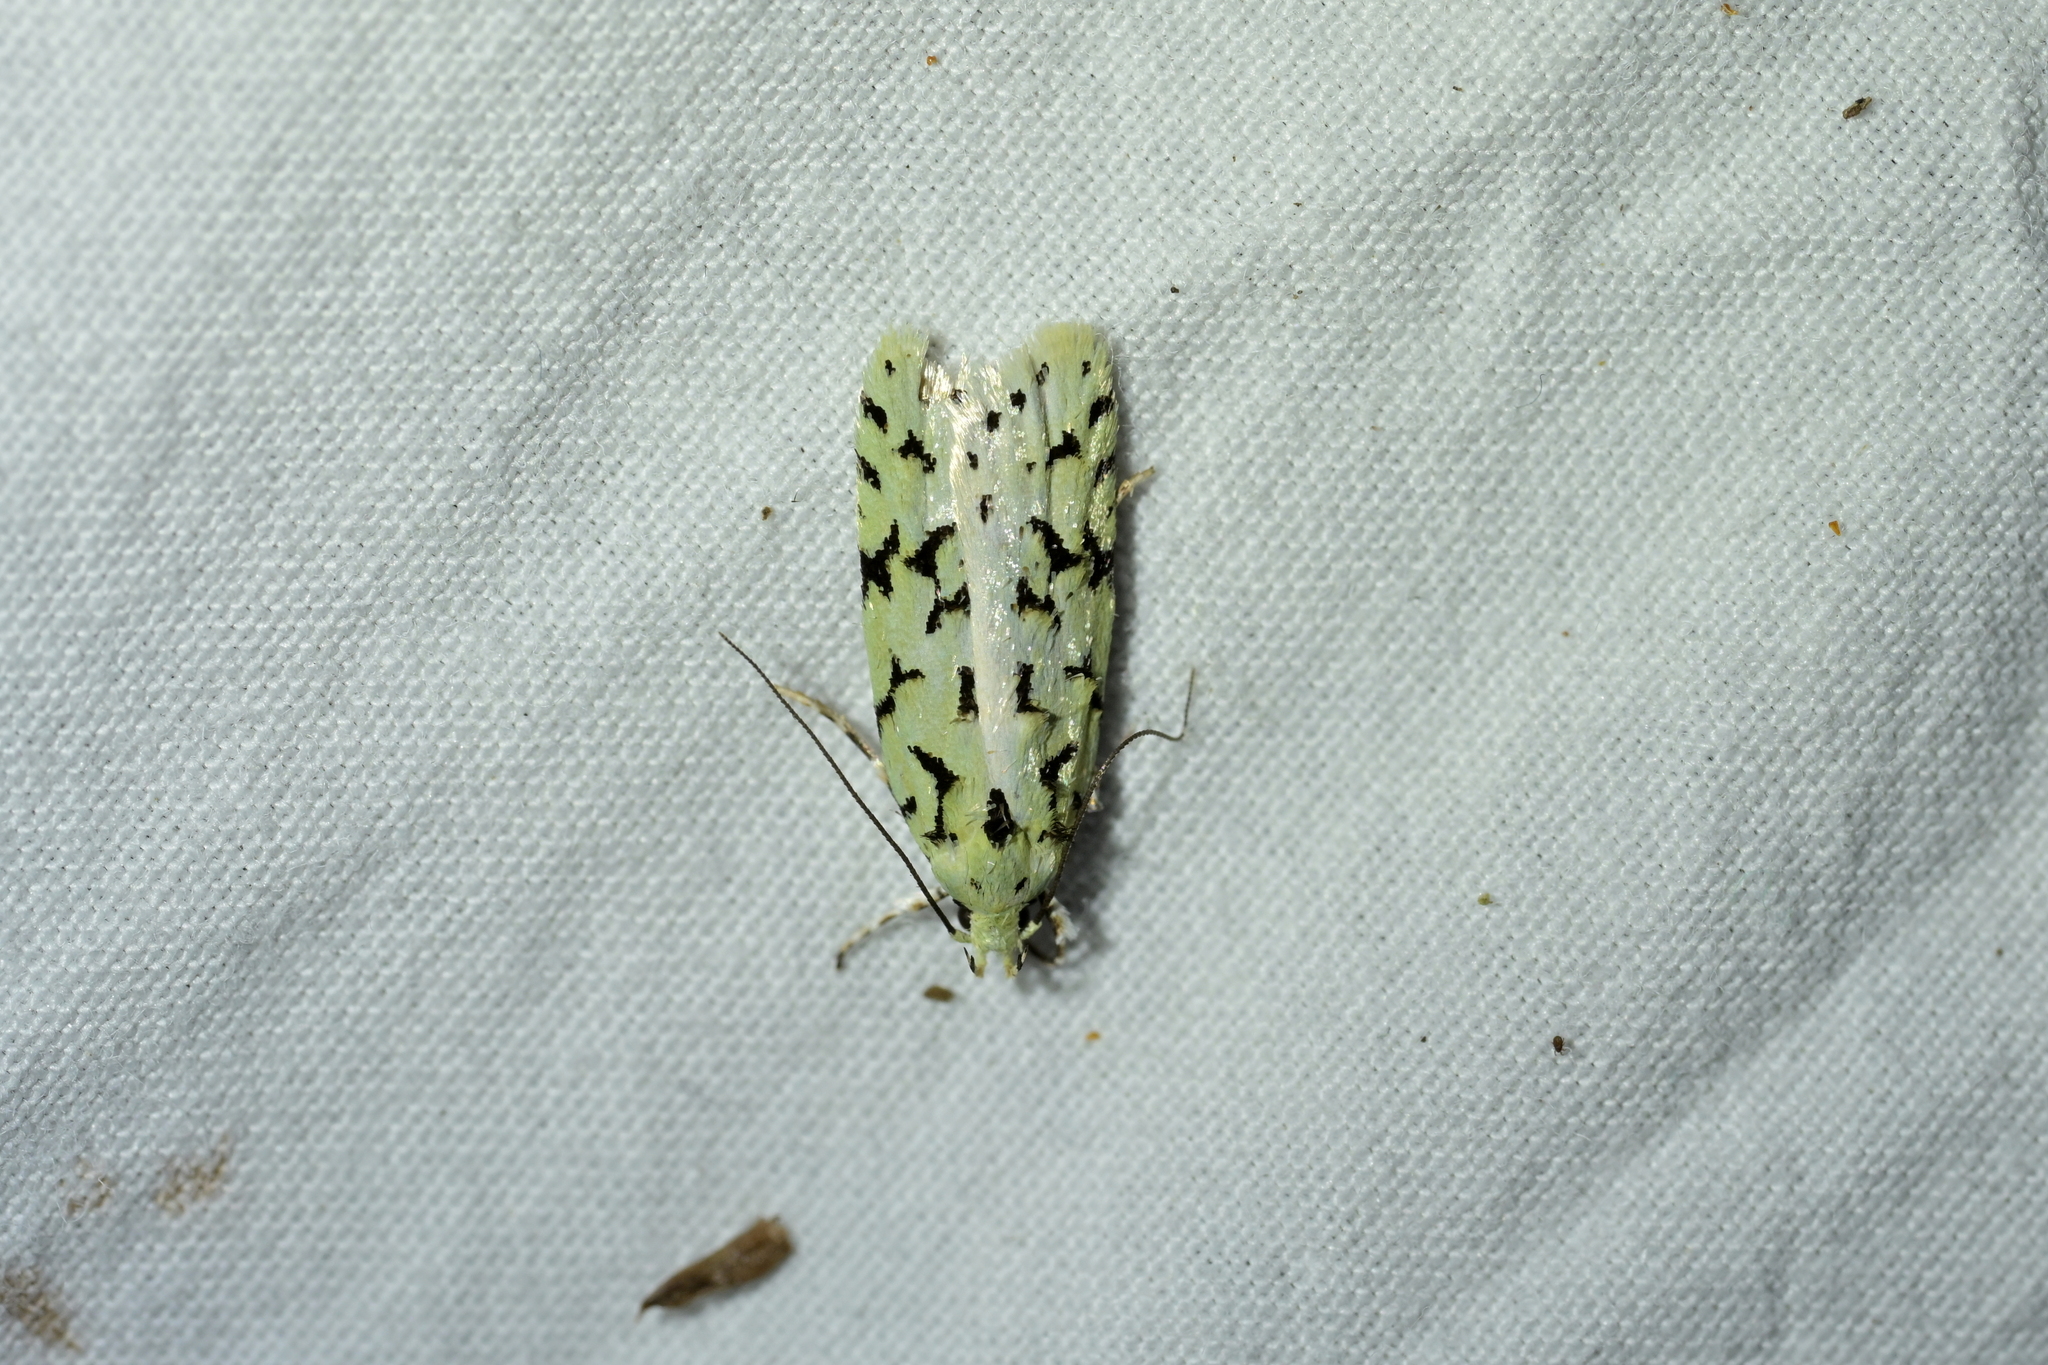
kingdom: Animalia
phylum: Arthropoda
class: Insecta
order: Lepidoptera
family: Oecophoridae
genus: Izatha
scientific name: Izatha huttoni
